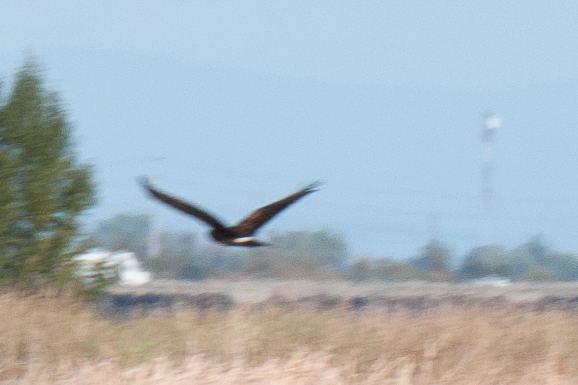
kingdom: Animalia
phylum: Chordata
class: Aves
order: Accipitriformes
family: Accipitridae
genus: Circus
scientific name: Circus cyaneus
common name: Hen harrier
